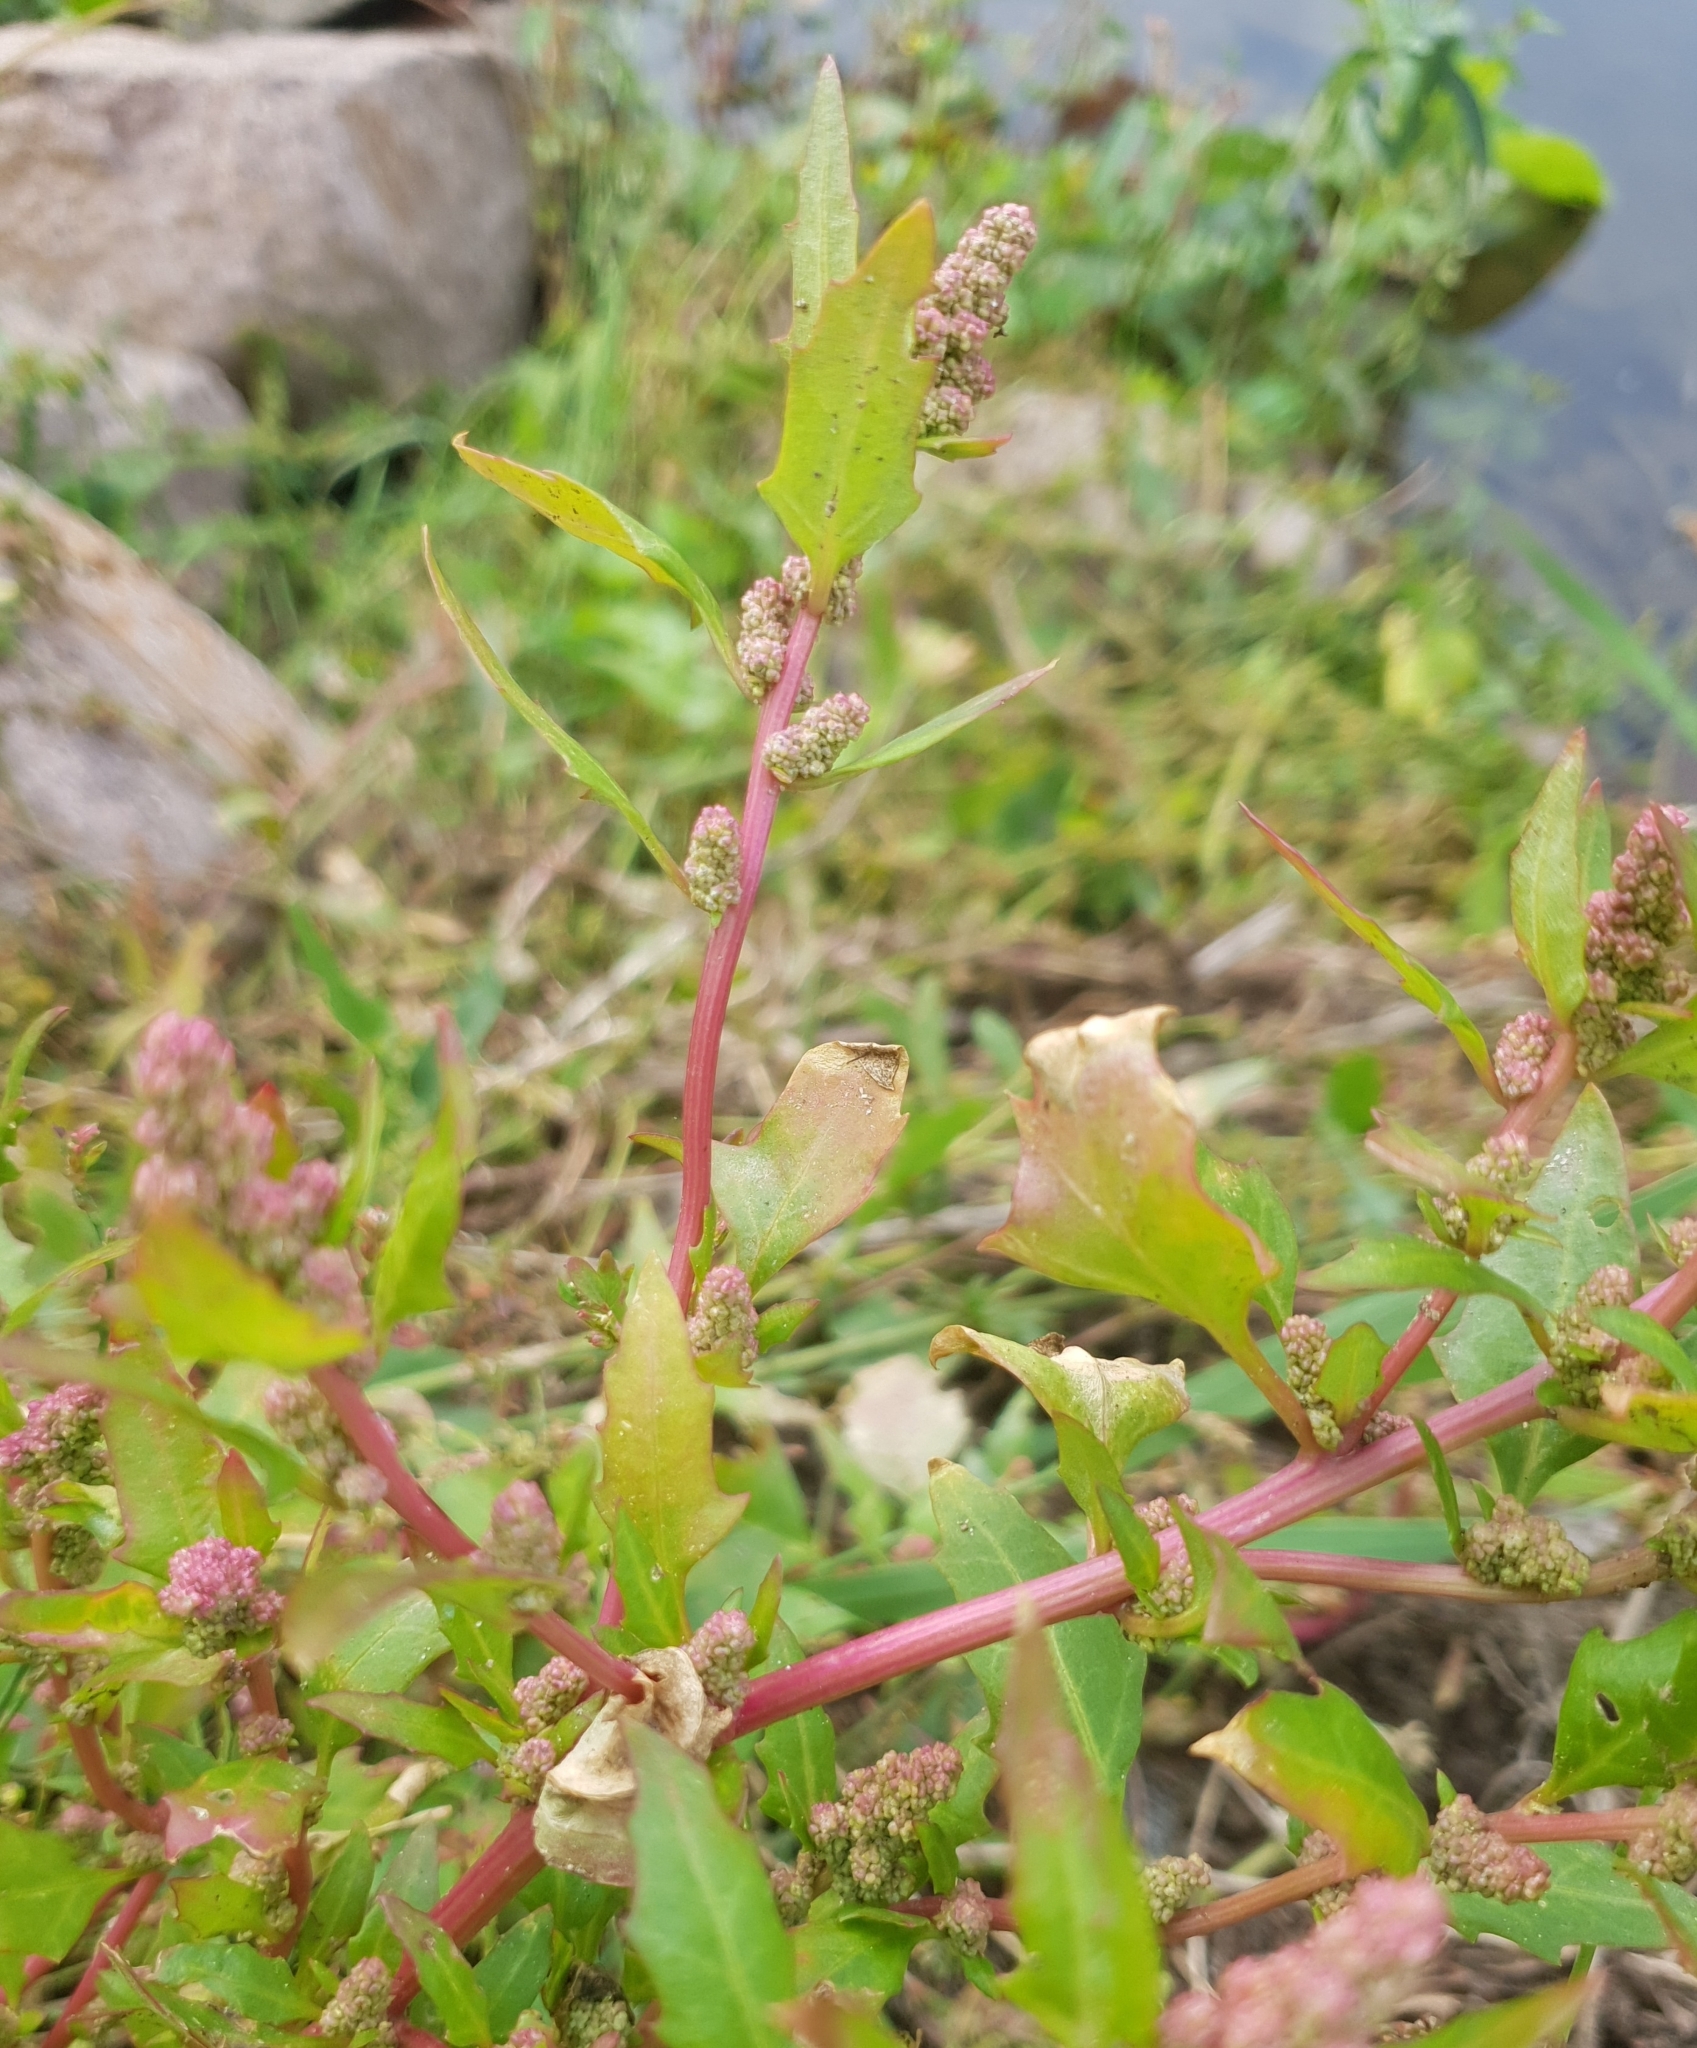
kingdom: Plantae
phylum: Tracheophyta
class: Magnoliopsida
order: Caryophyllales
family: Amaranthaceae
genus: Oxybasis
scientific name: Oxybasis rubra
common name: Red goosefoot
